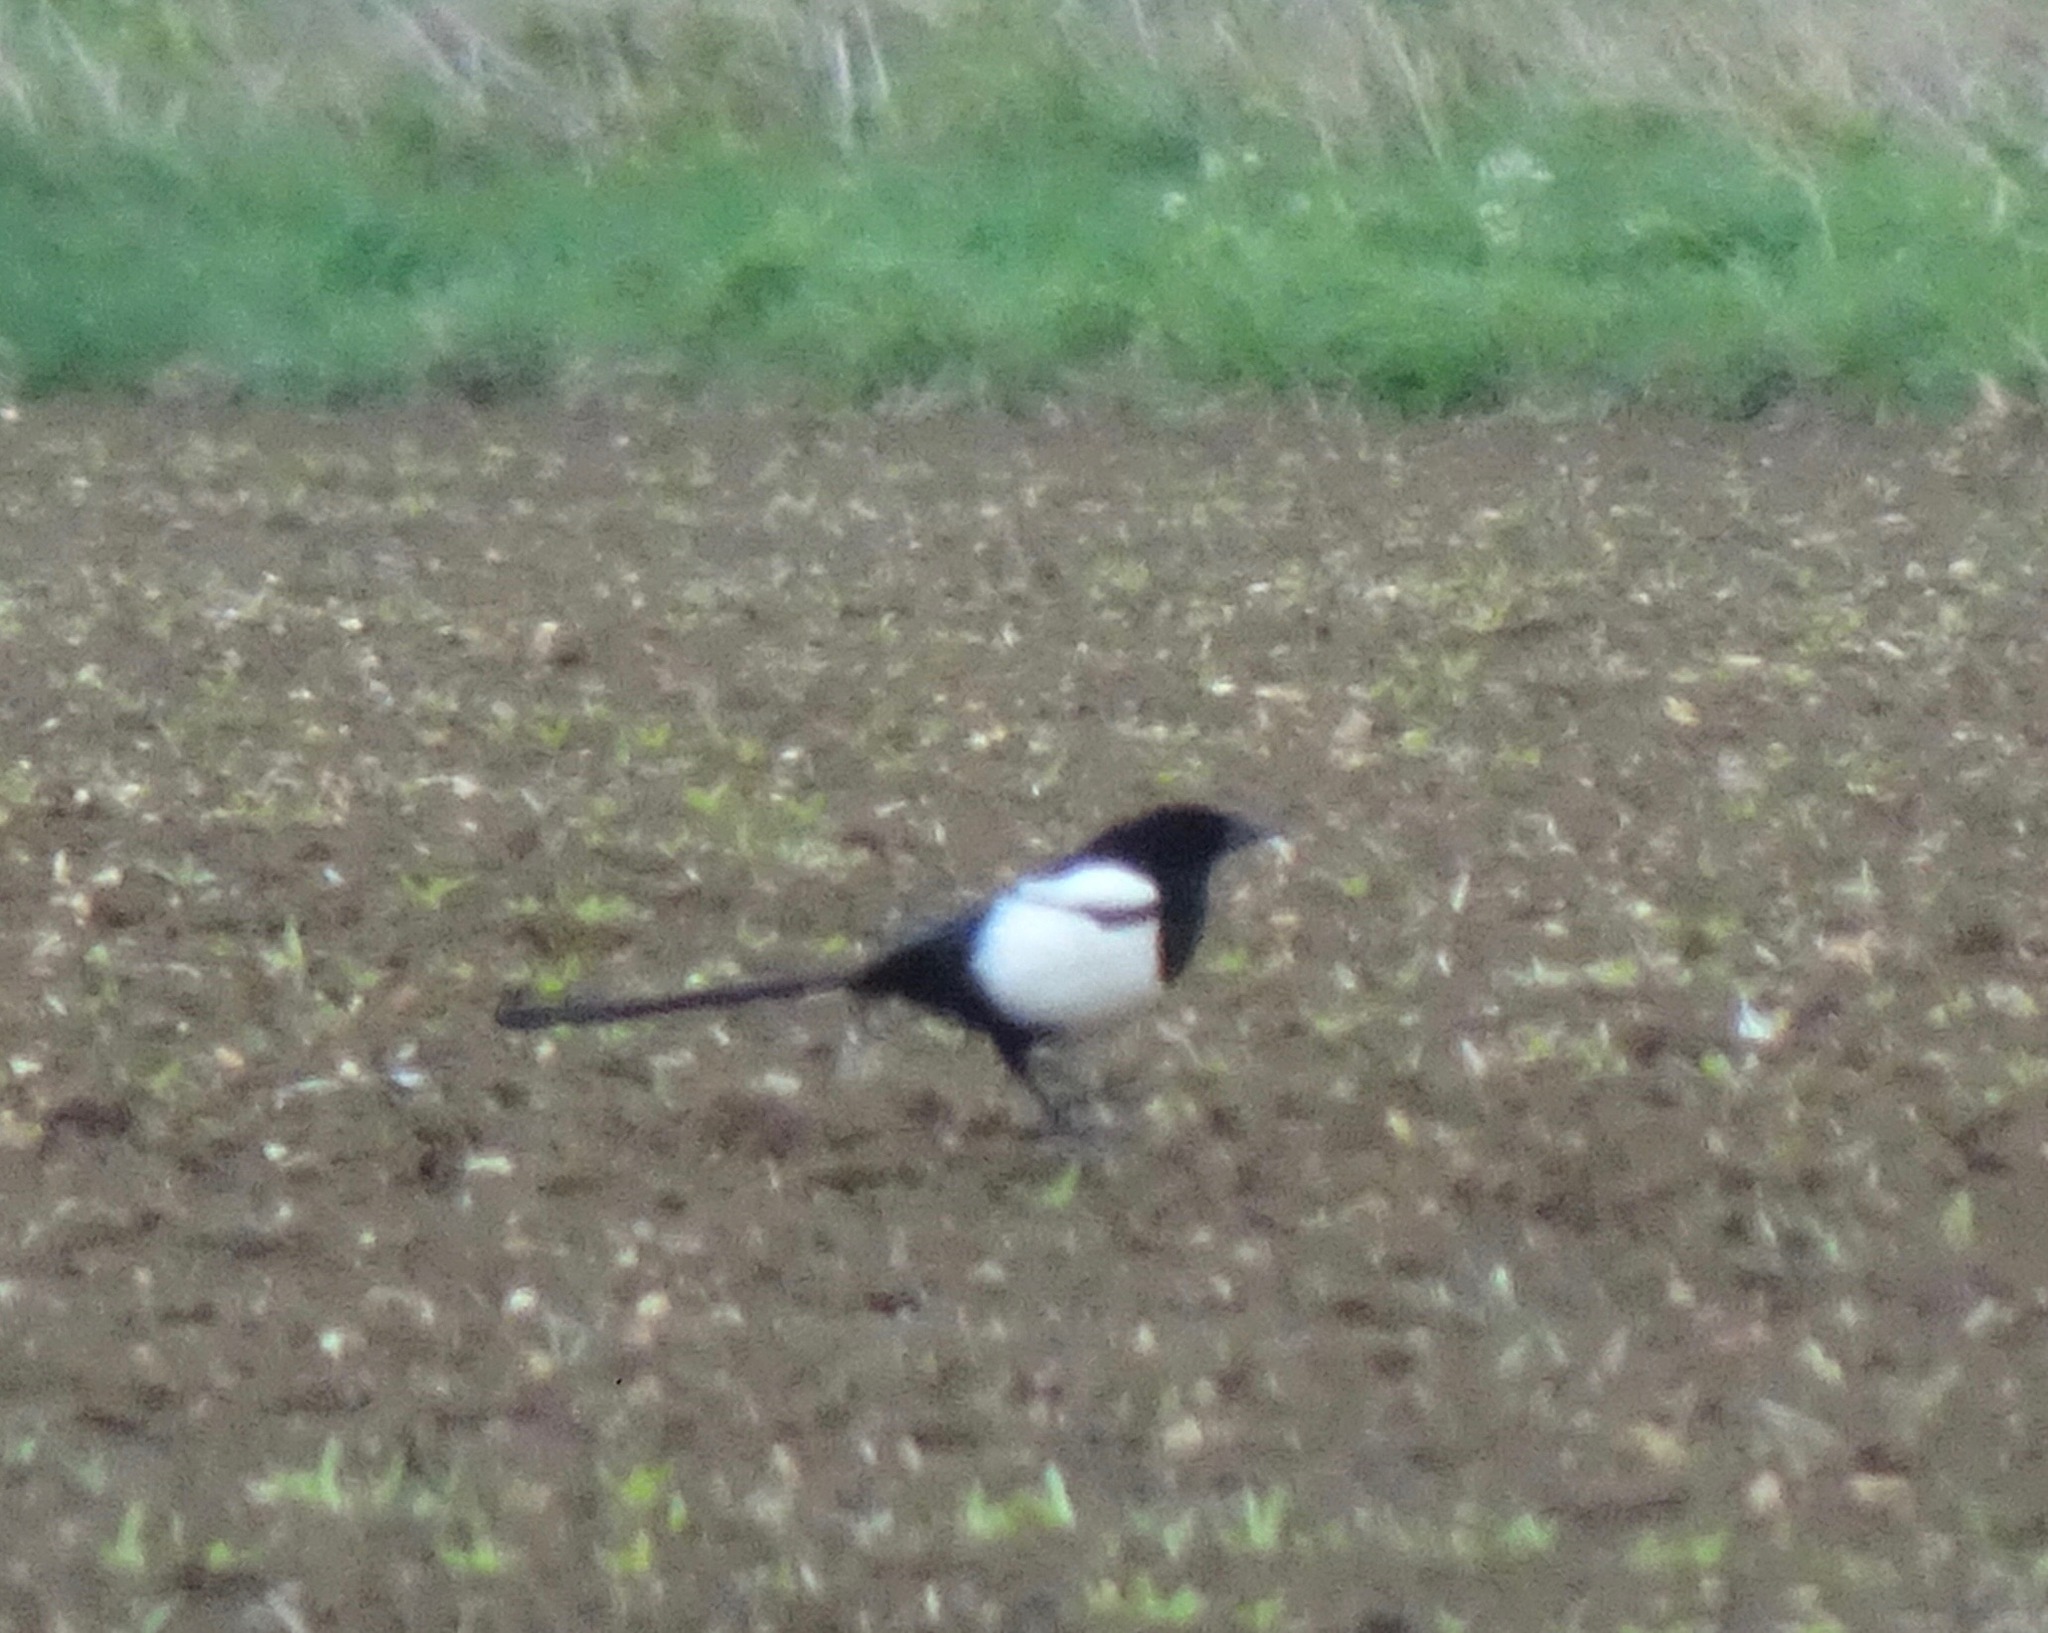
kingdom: Animalia
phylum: Chordata
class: Aves
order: Passeriformes
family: Corvidae
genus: Pica
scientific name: Pica pica
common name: Eurasian magpie
